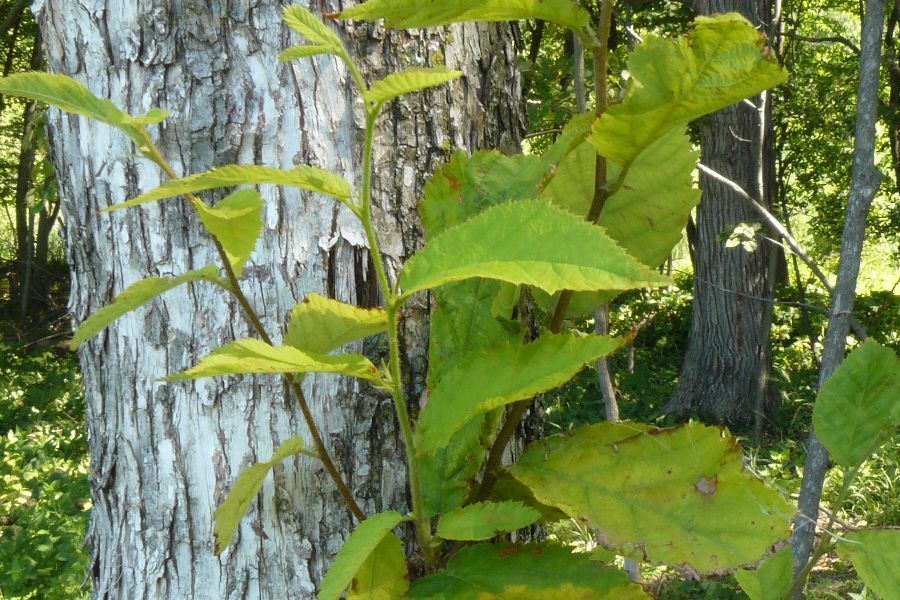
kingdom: Plantae
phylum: Tracheophyta
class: Magnoliopsida
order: Fagales
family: Betulaceae
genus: Ostrya
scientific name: Ostrya virginiana
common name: Ironwood
